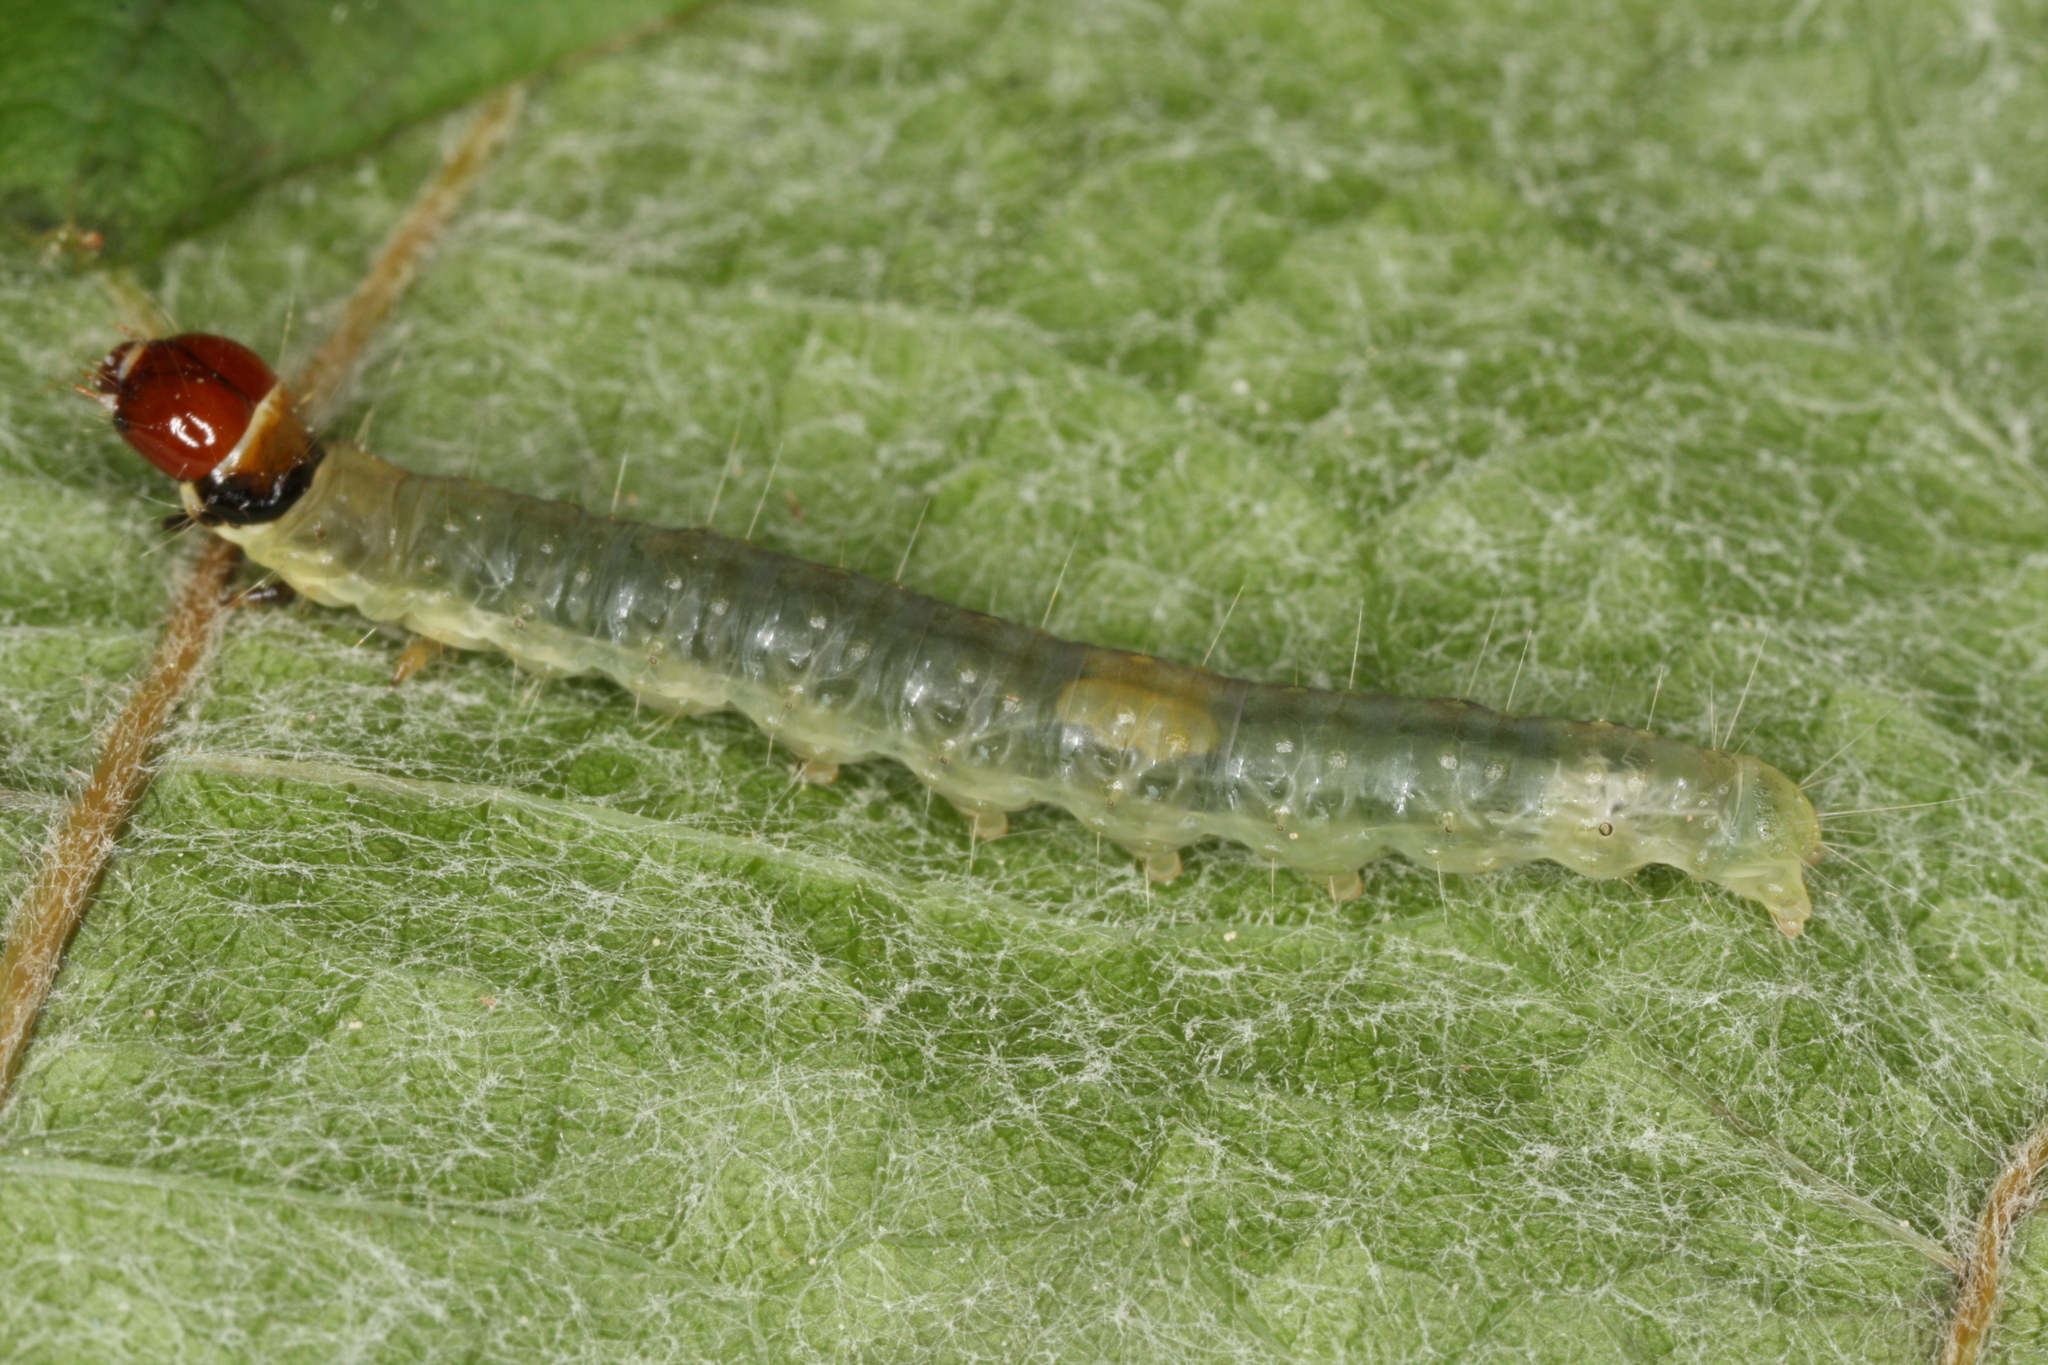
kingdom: Animalia
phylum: Arthropoda
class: Insecta
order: Lepidoptera
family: Tortricidae
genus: Archips
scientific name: Archips podana
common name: Large fruit-tree tortrix
